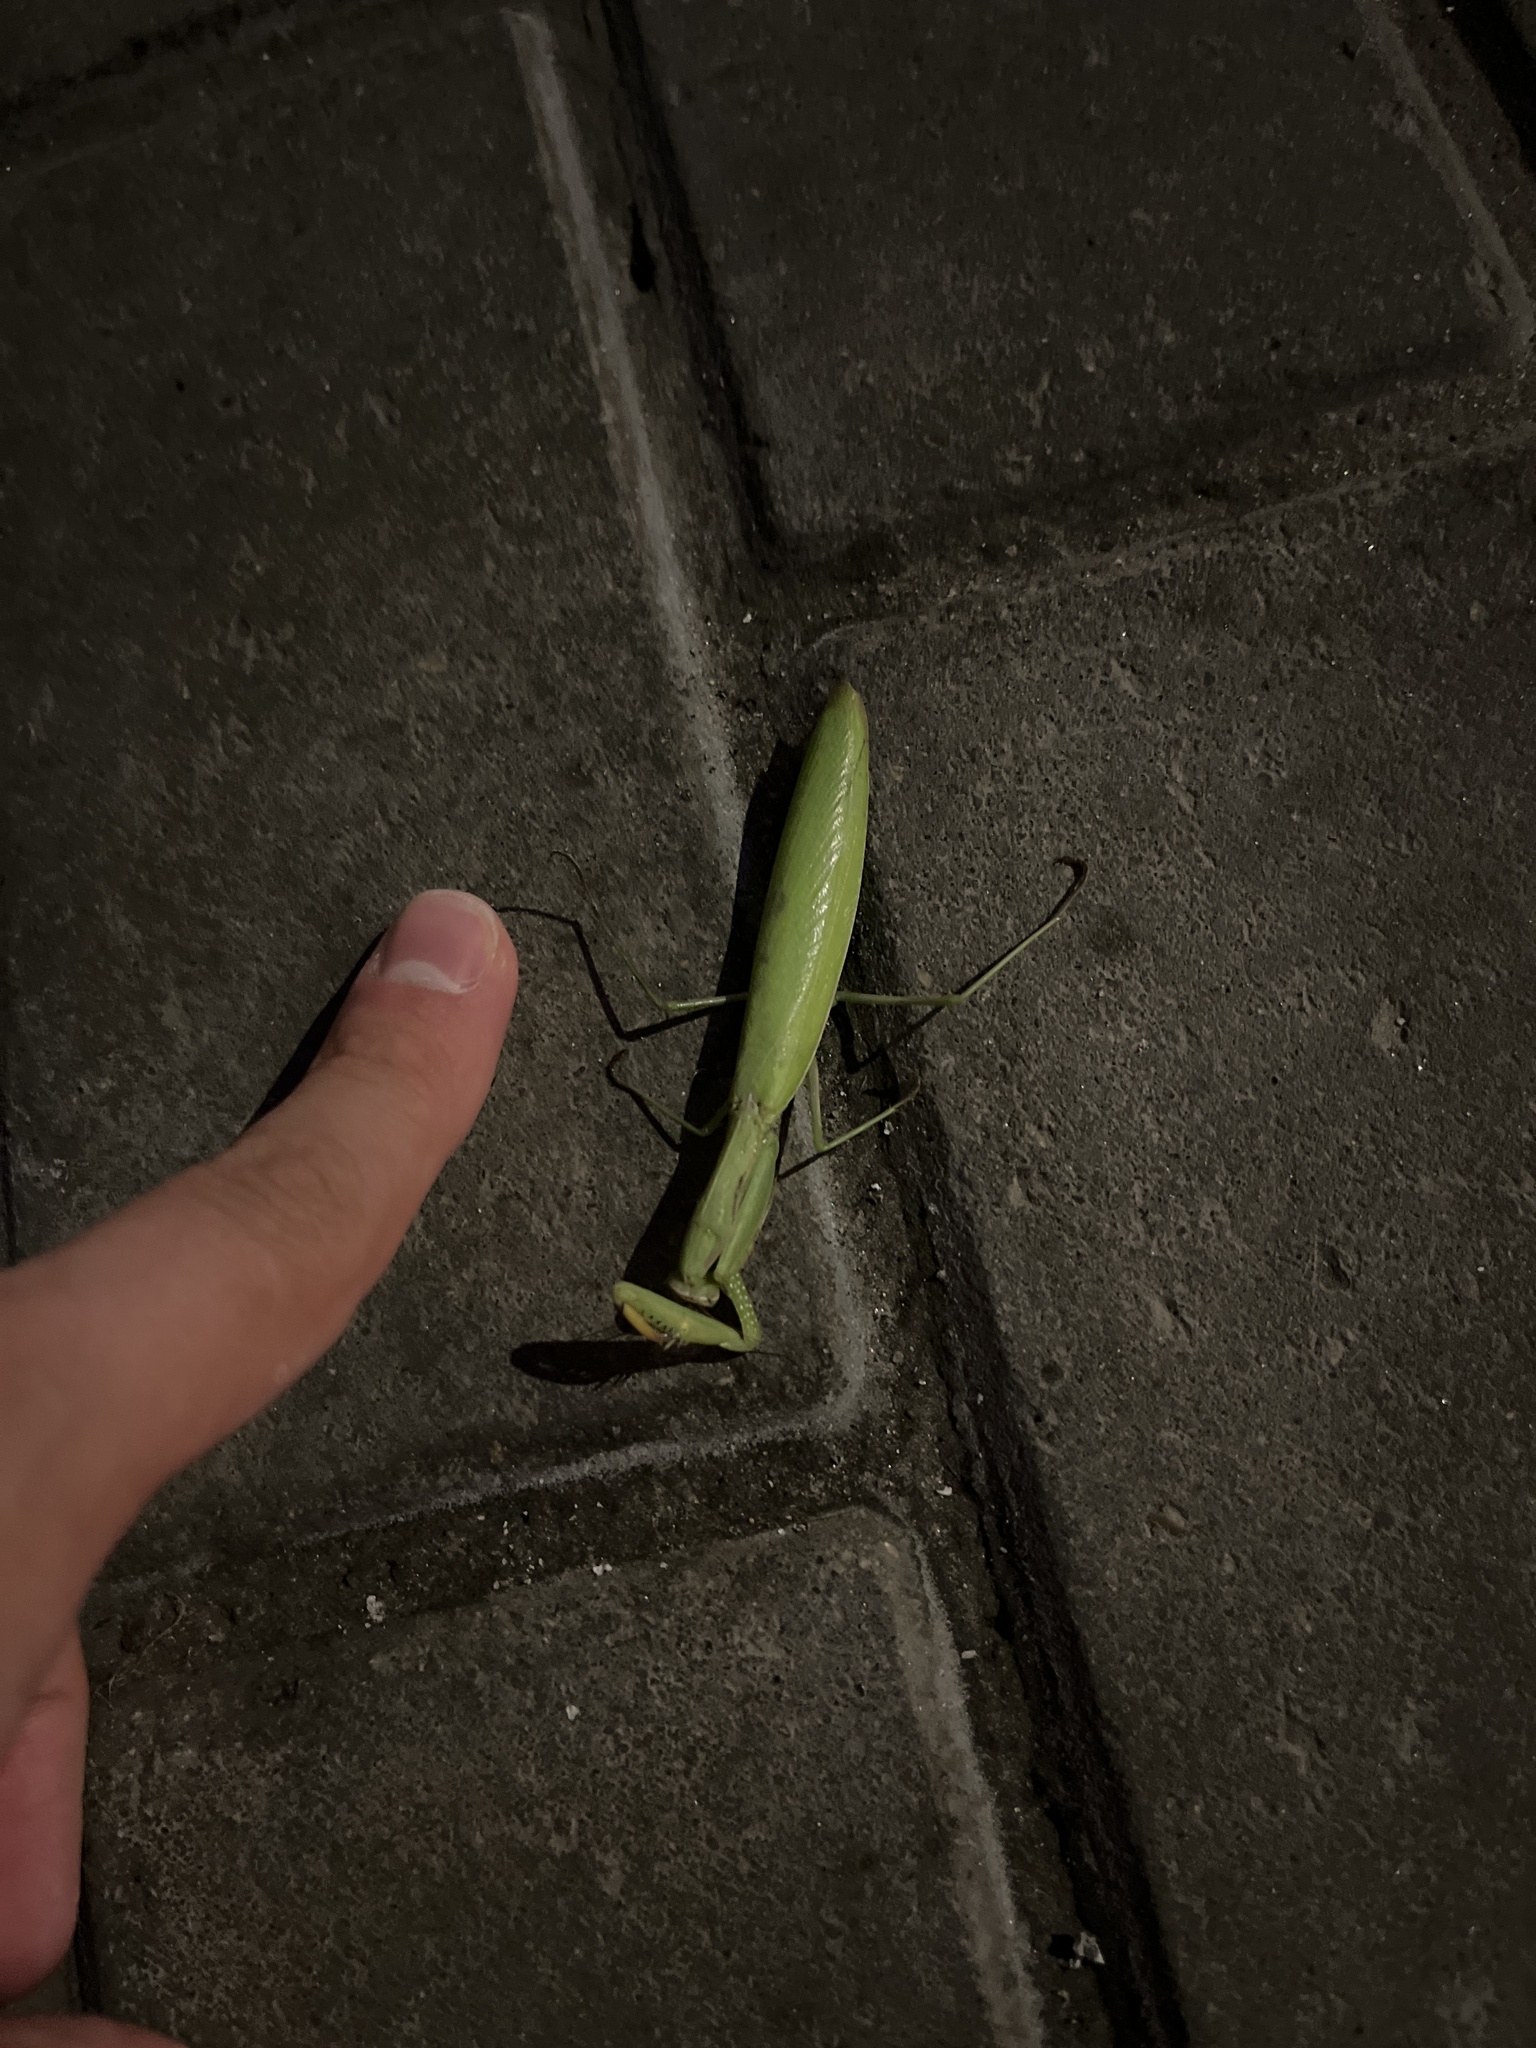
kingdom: Animalia
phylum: Arthropoda
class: Insecta
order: Mantodea
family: Mantidae
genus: Mantis
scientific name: Mantis religiosa
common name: Praying mantis
